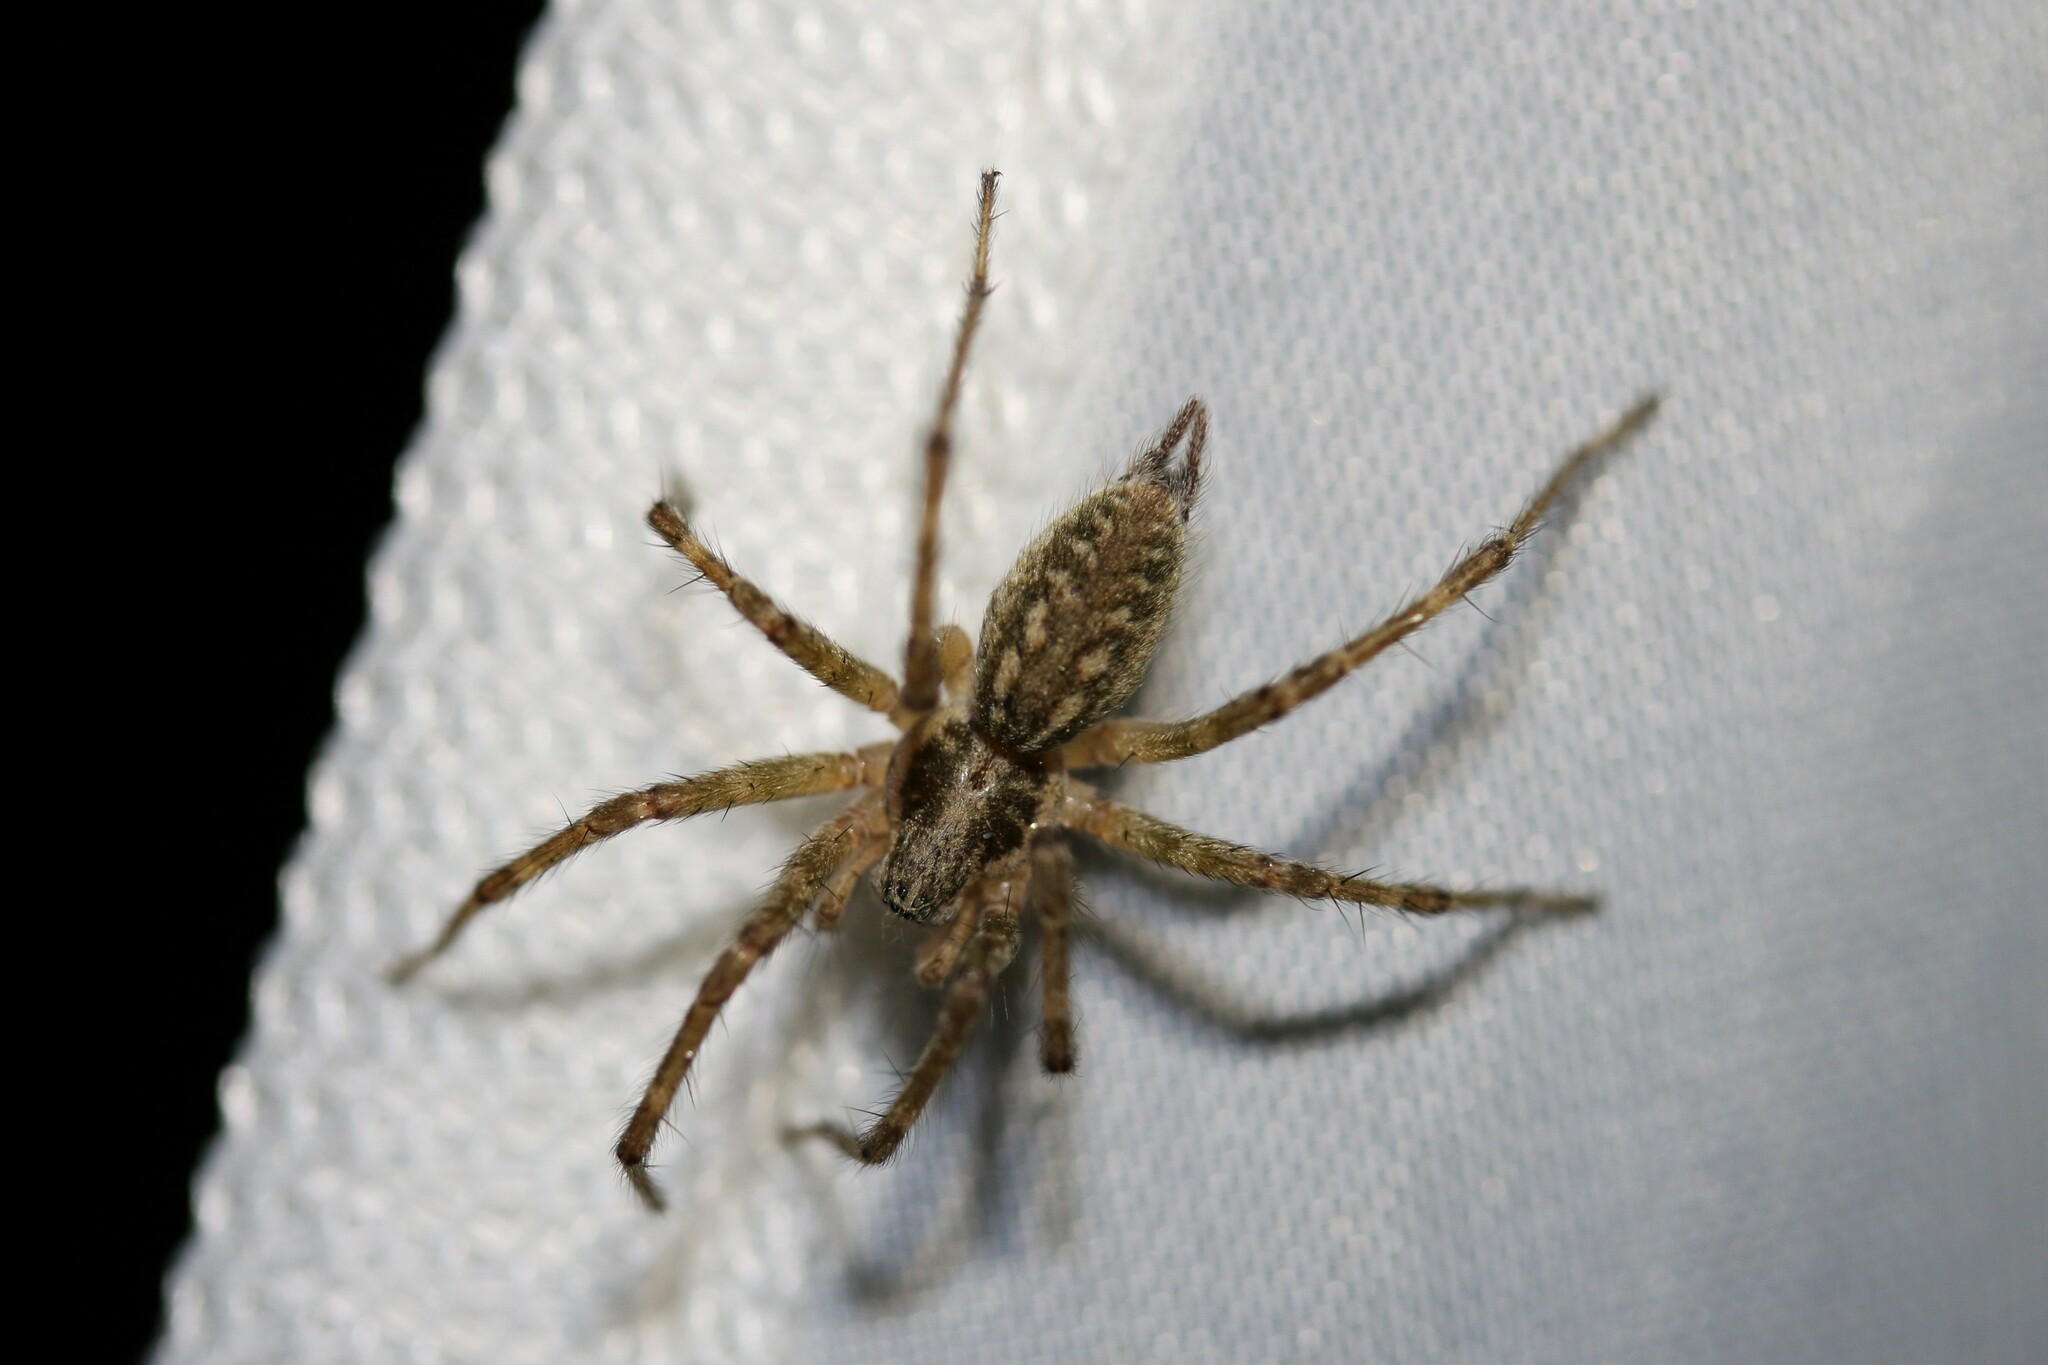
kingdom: Animalia
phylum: Arthropoda
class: Arachnida
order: Araneae
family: Agelenidae
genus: Allagelena
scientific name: Allagelena gracilens
